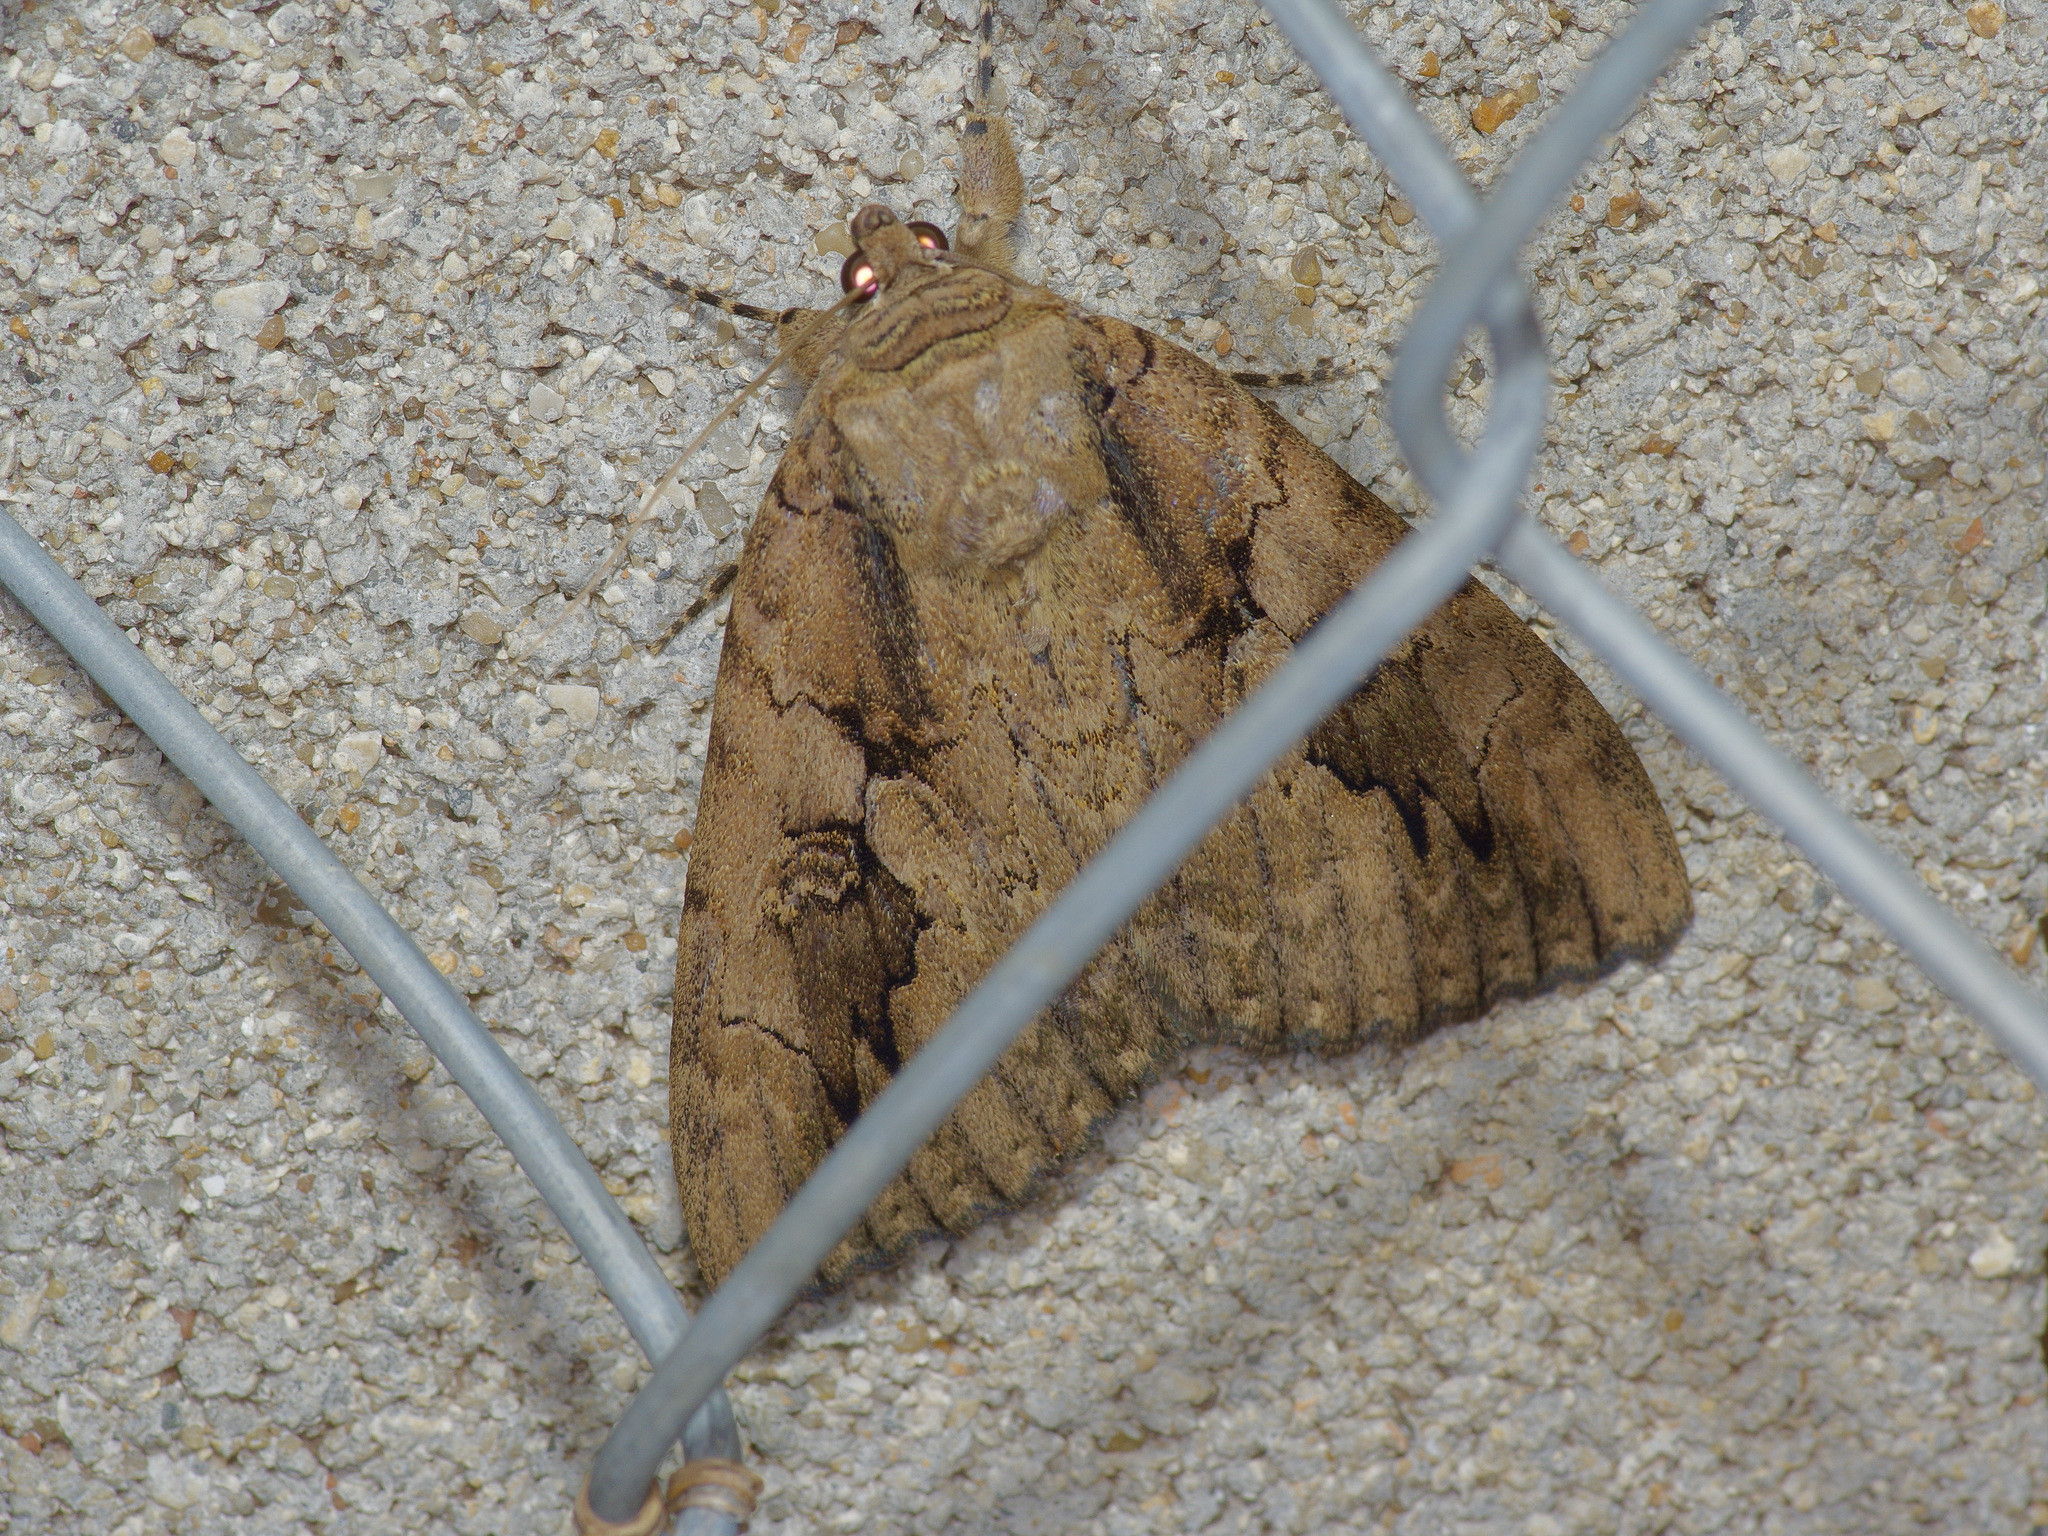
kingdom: Animalia
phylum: Arthropoda
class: Insecta
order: Lepidoptera
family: Erebidae
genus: Catocala
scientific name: Catocala amatrix
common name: Sweetheart underwing
